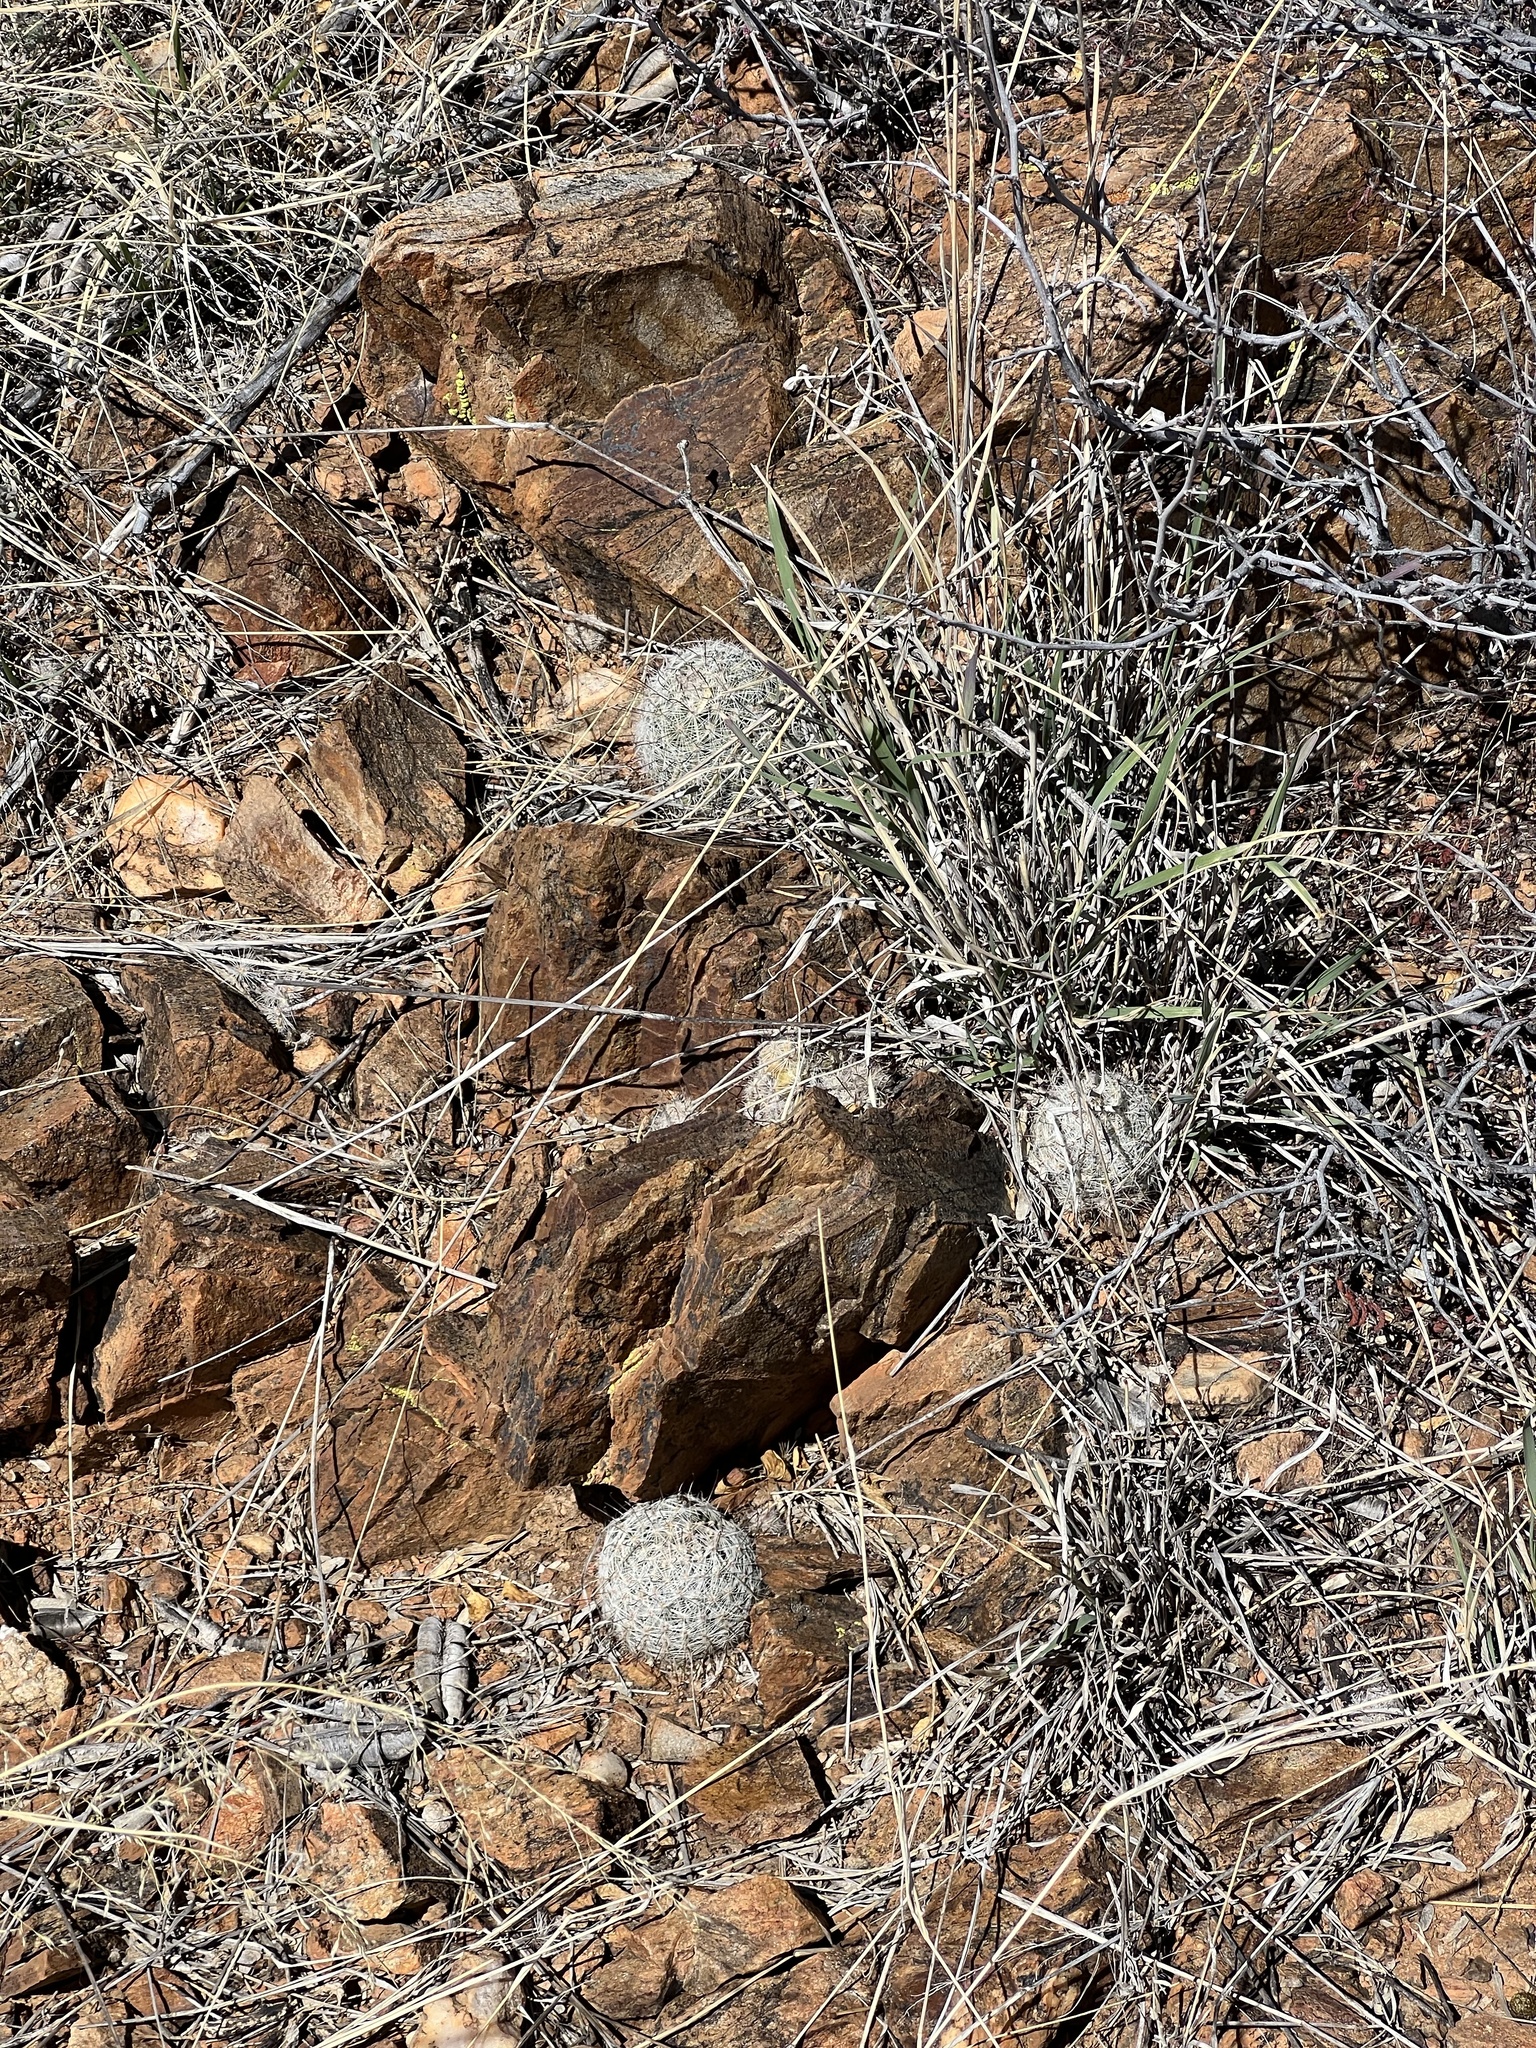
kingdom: Plantae
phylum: Tracheophyta
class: Magnoliopsida
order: Caryophyllales
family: Cactaceae
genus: Cochemiea
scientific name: Cochemiea grahamii
